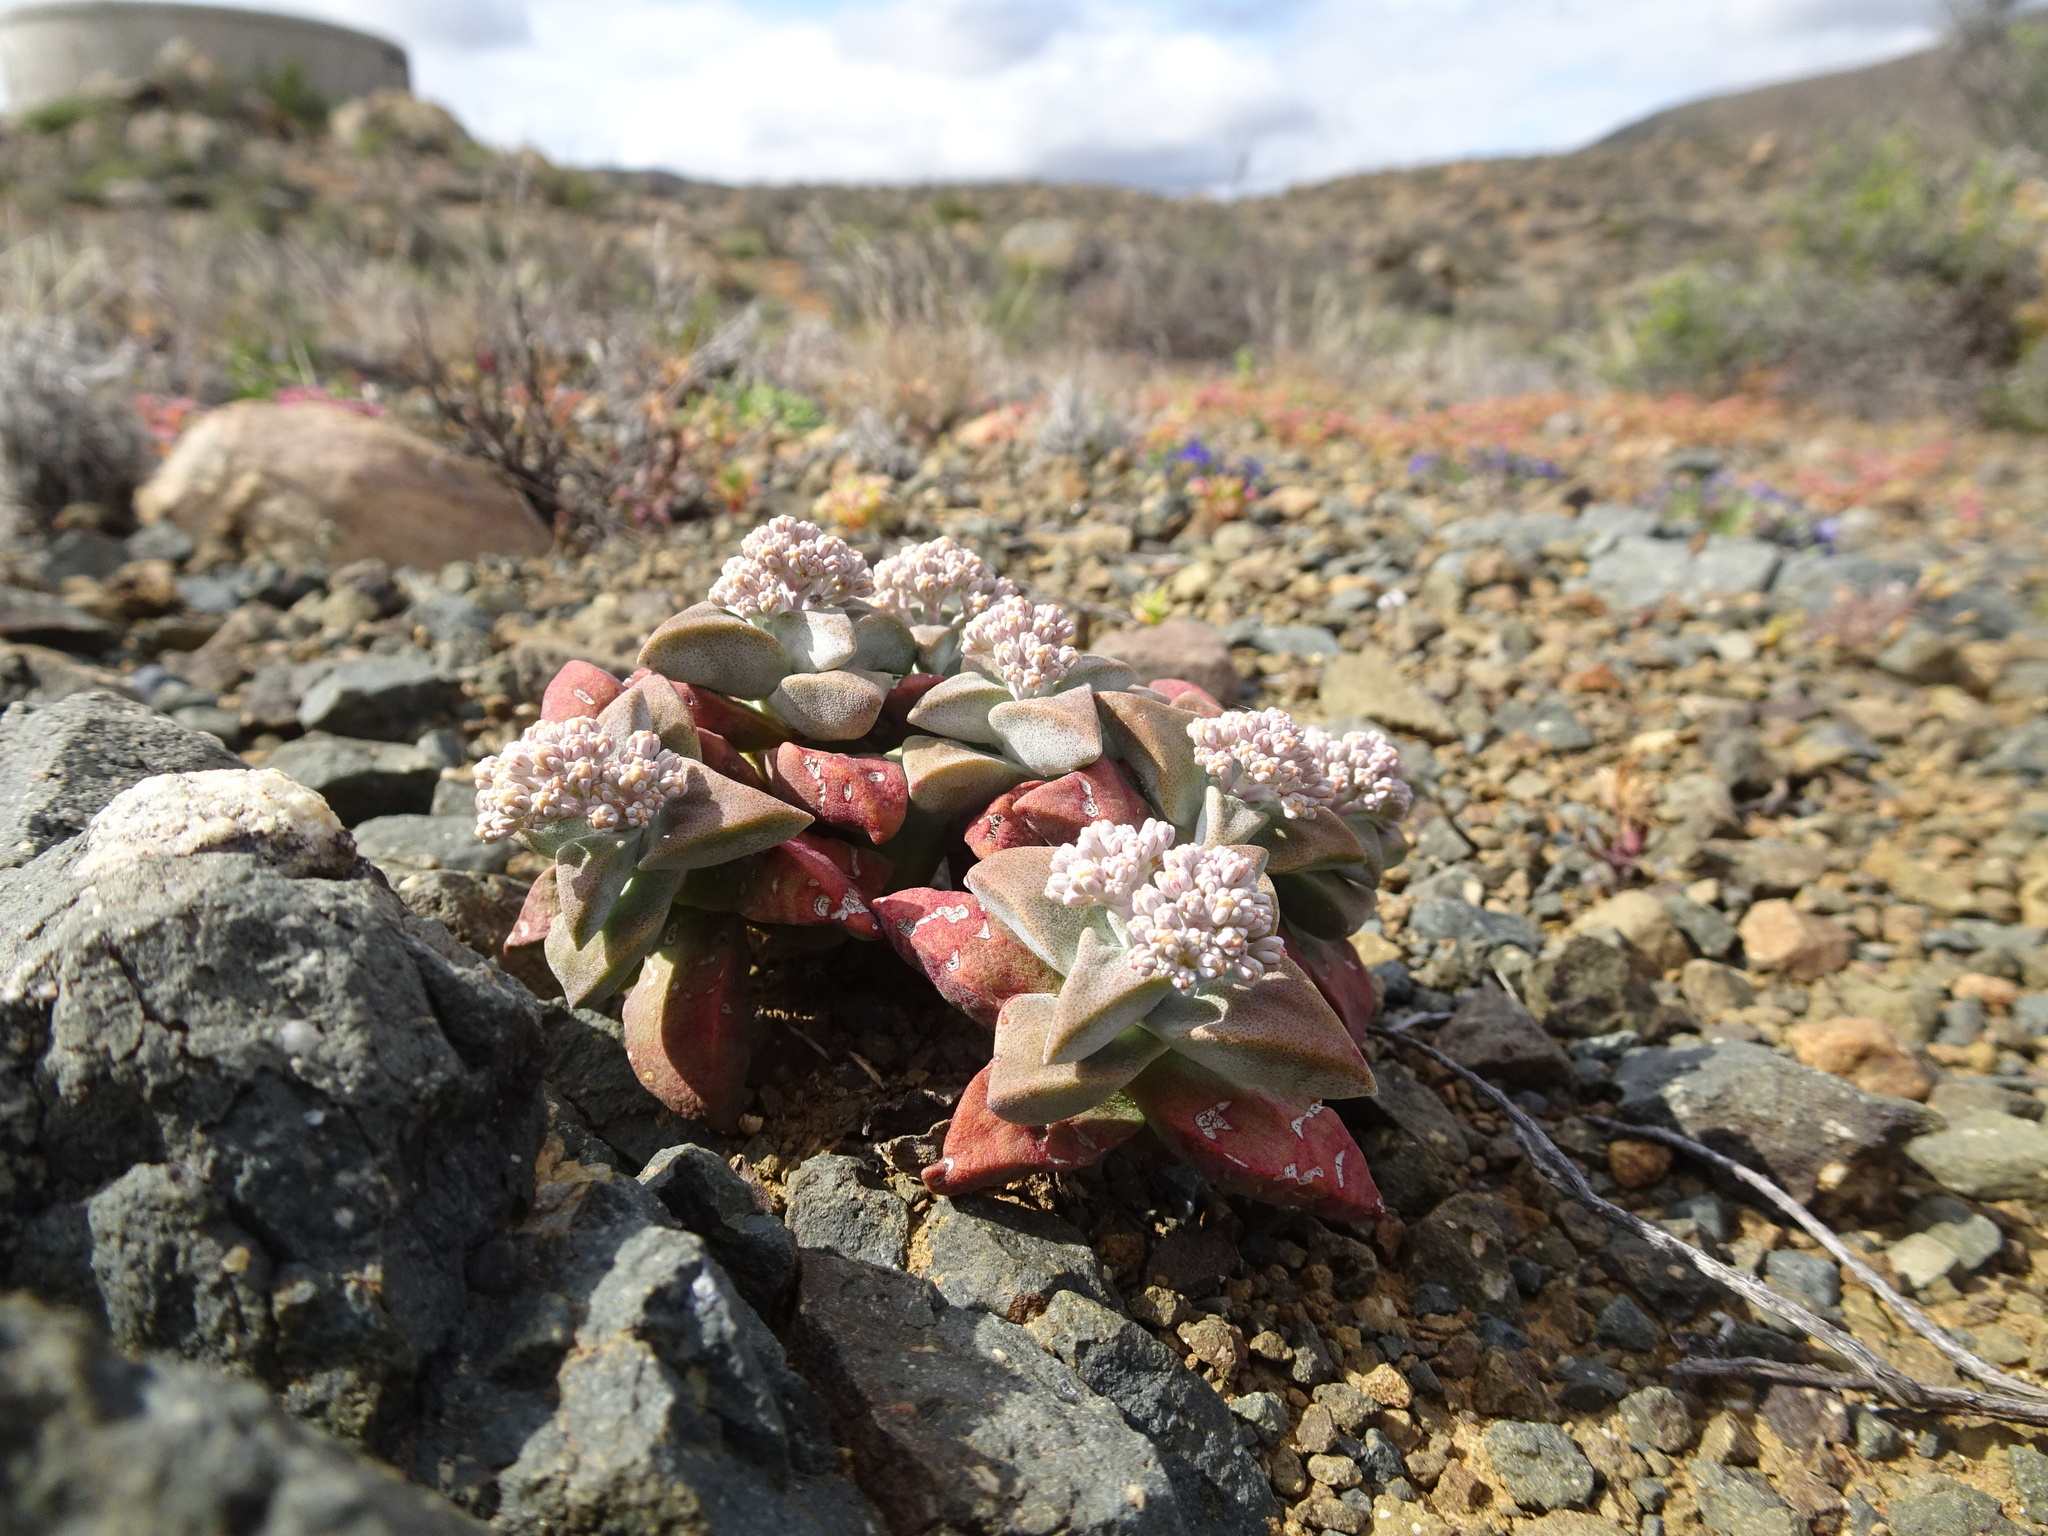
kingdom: Plantae
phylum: Tracheophyta
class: Magnoliopsida
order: Saxifragales
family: Crassulaceae
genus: Crassula
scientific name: Crassula deltoidea
